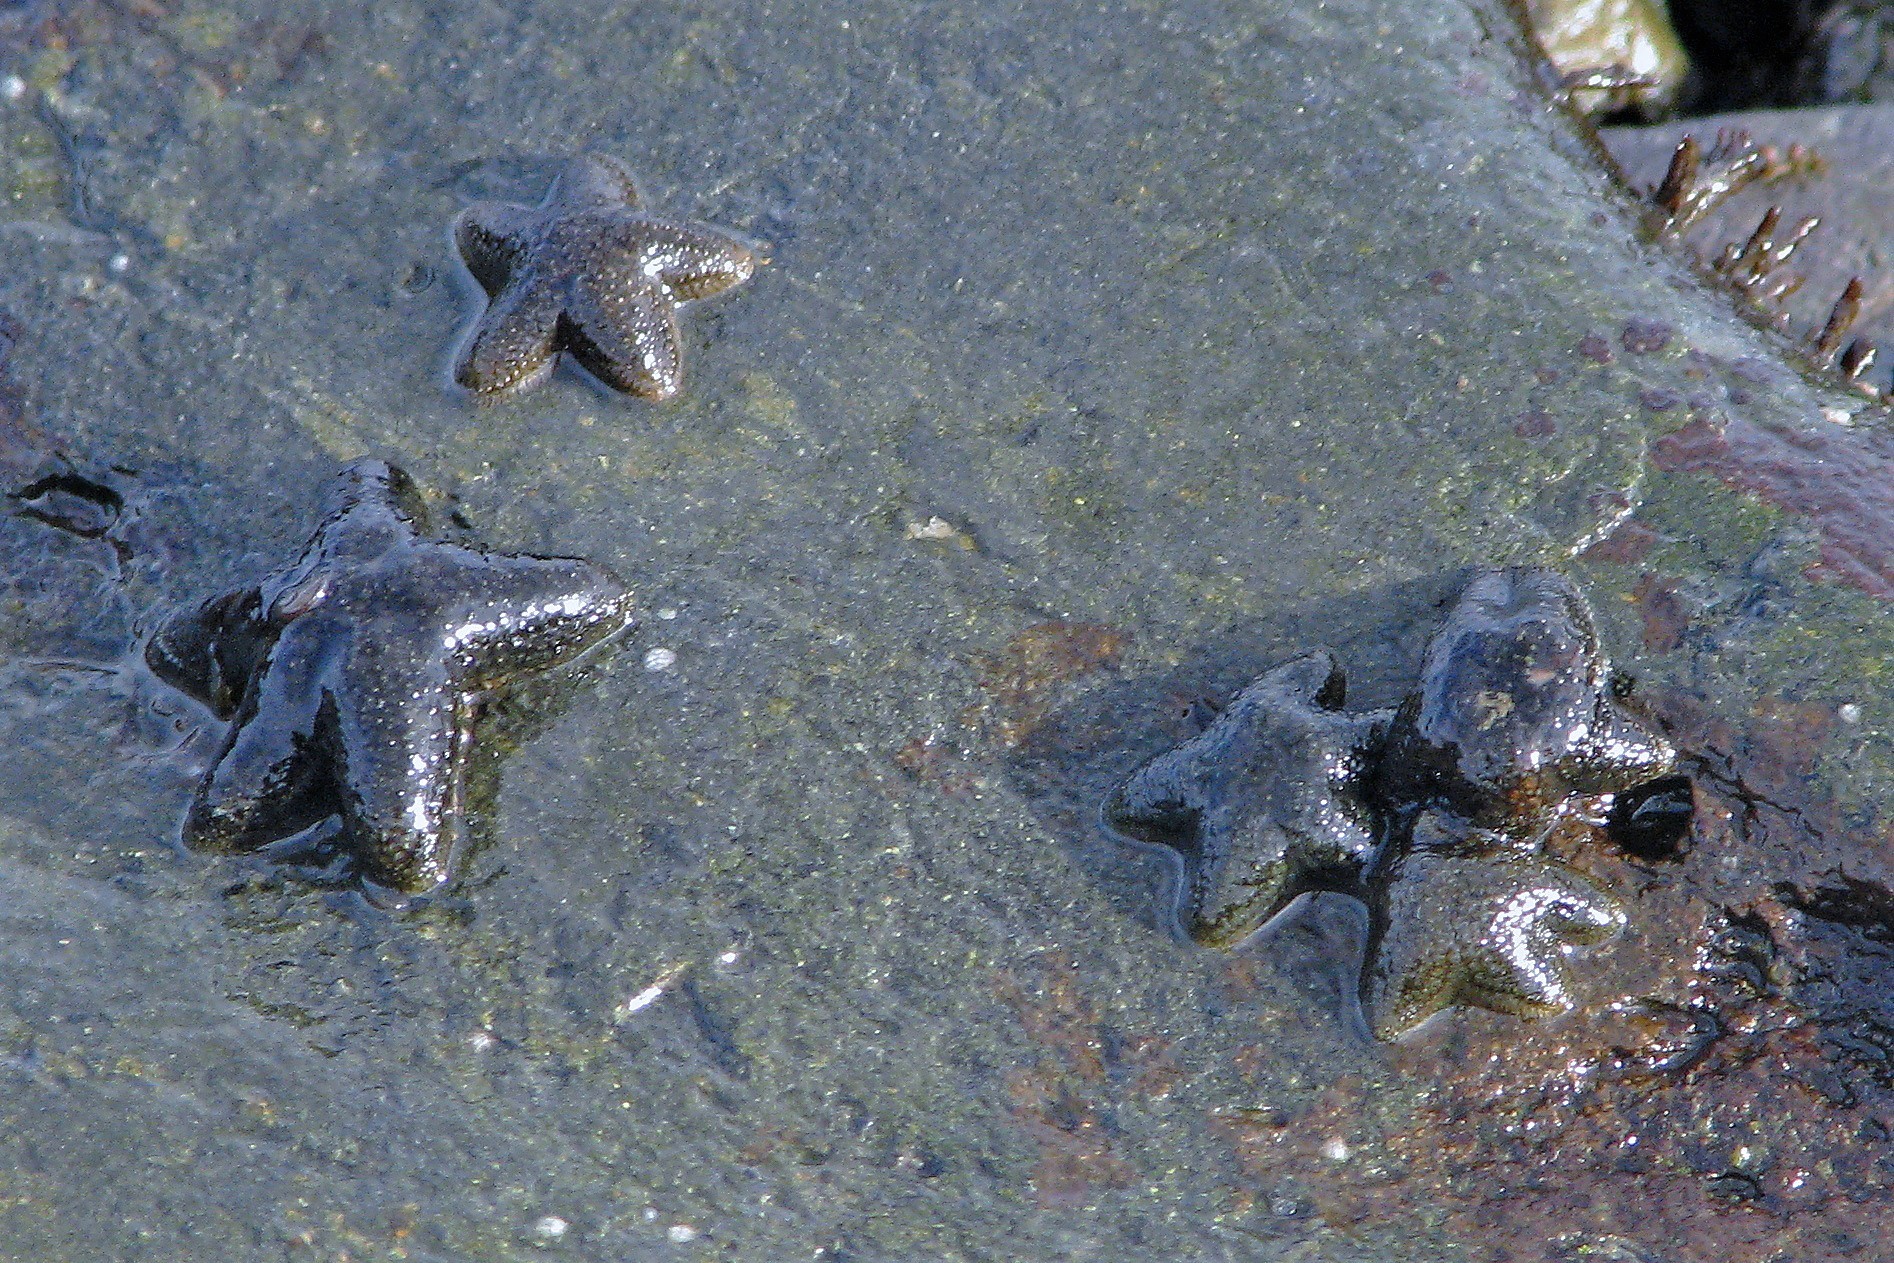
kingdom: Animalia
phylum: Echinodermata
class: Asteroidea
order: Forcipulatida
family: Asteriidae
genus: Anasterias
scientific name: Anasterias antarctica
